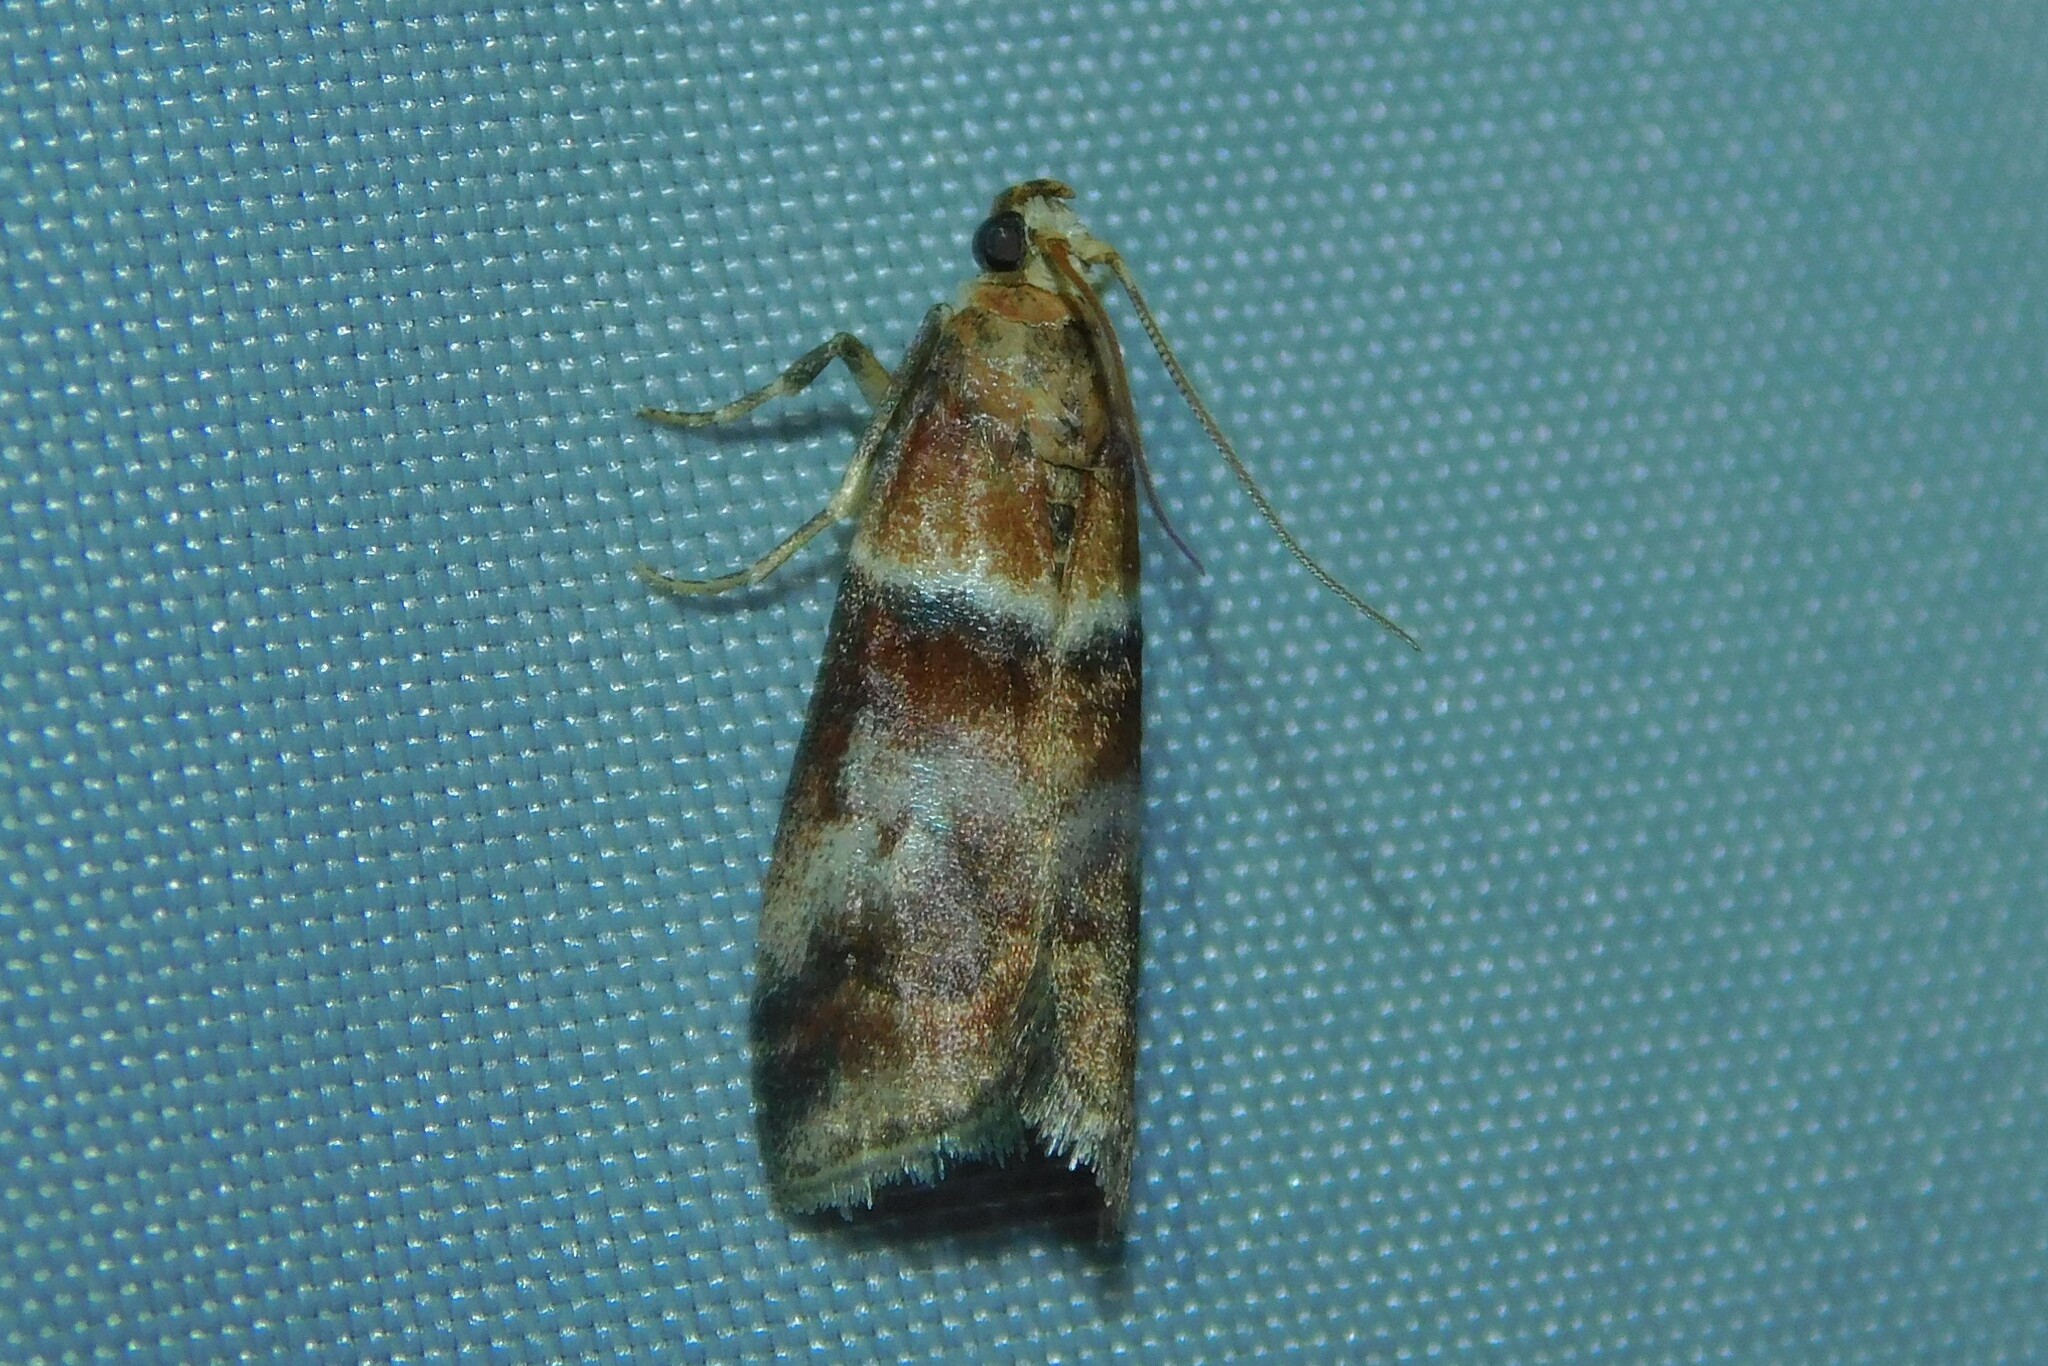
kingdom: Animalia
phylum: Arthropoda
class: Insecta
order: Lepidoptera
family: Pyralidae
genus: Acrobasis
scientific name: Acrobasis repandana
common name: Warted knot-horn
